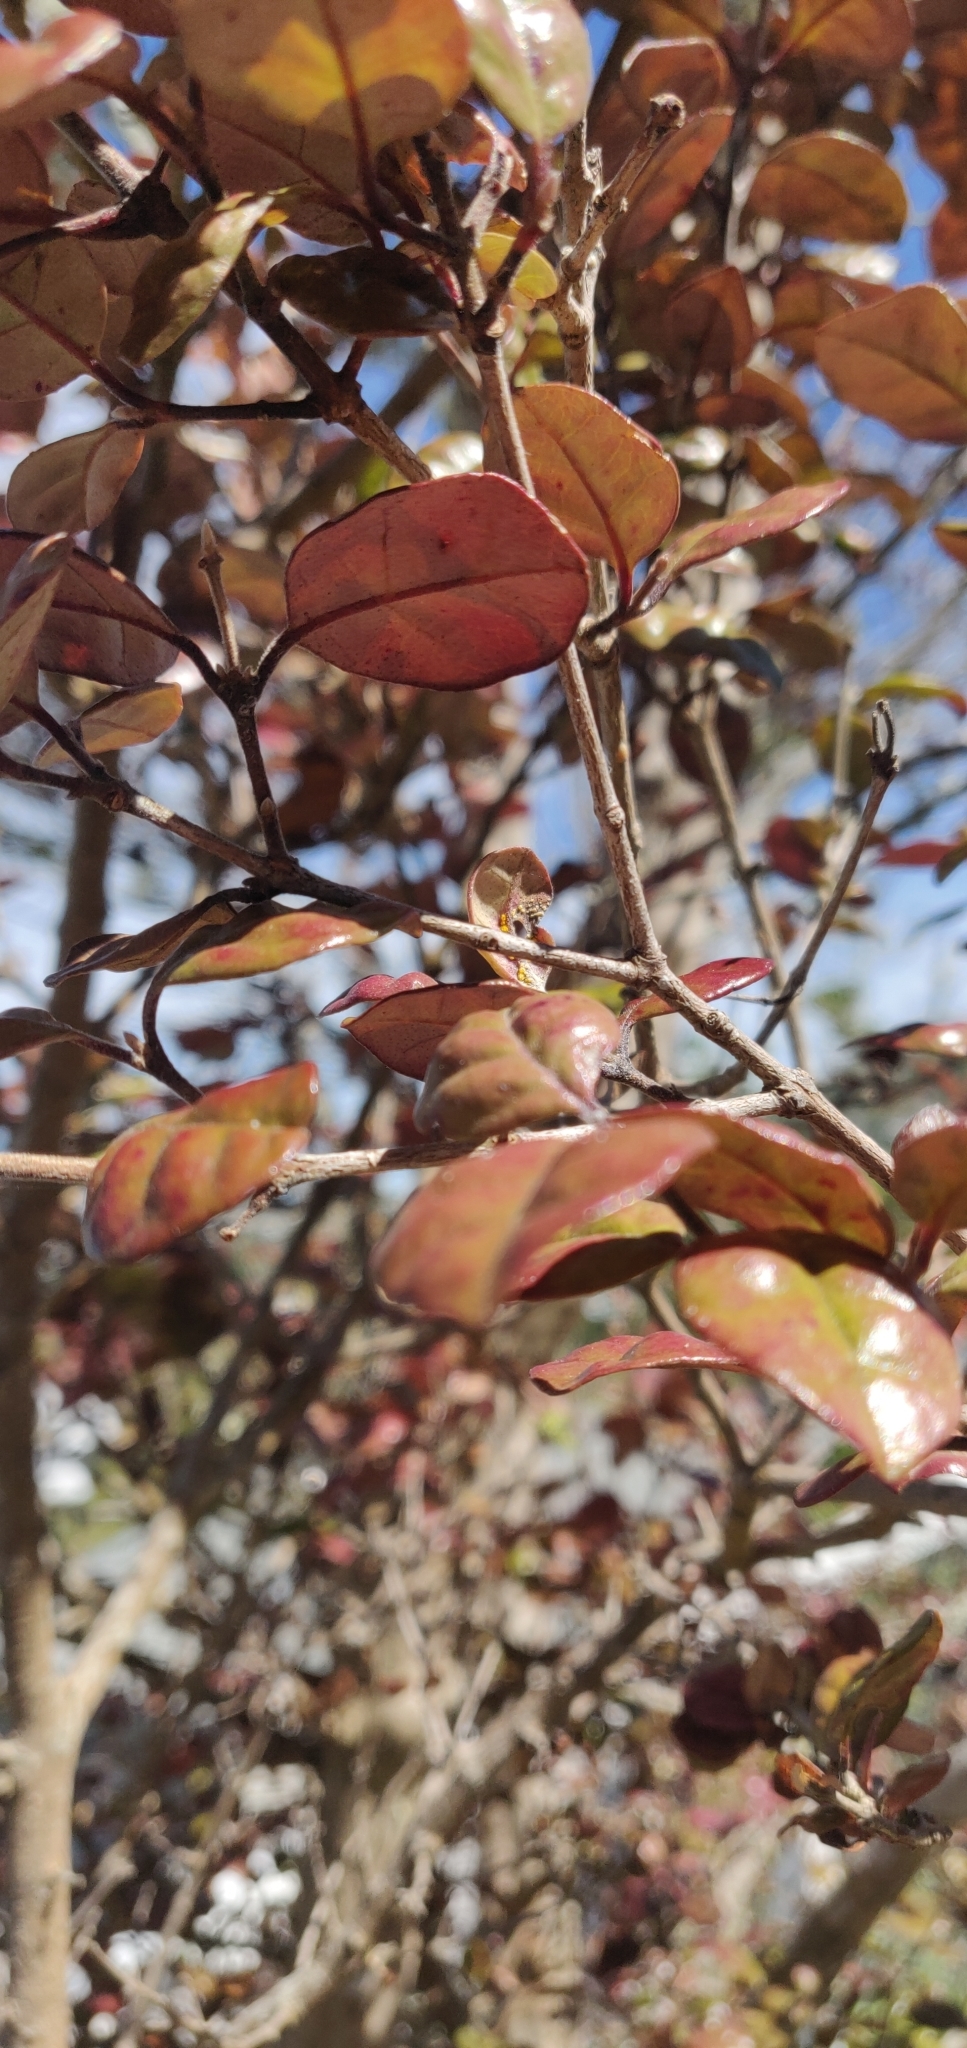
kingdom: Fungi
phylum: Basidiomycota
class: Pucciniomycetes
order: Pucciniales
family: Sphaerophragmiaceae
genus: Austropuccinia
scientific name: Austropuccinia psidii
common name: Myrtle rust
